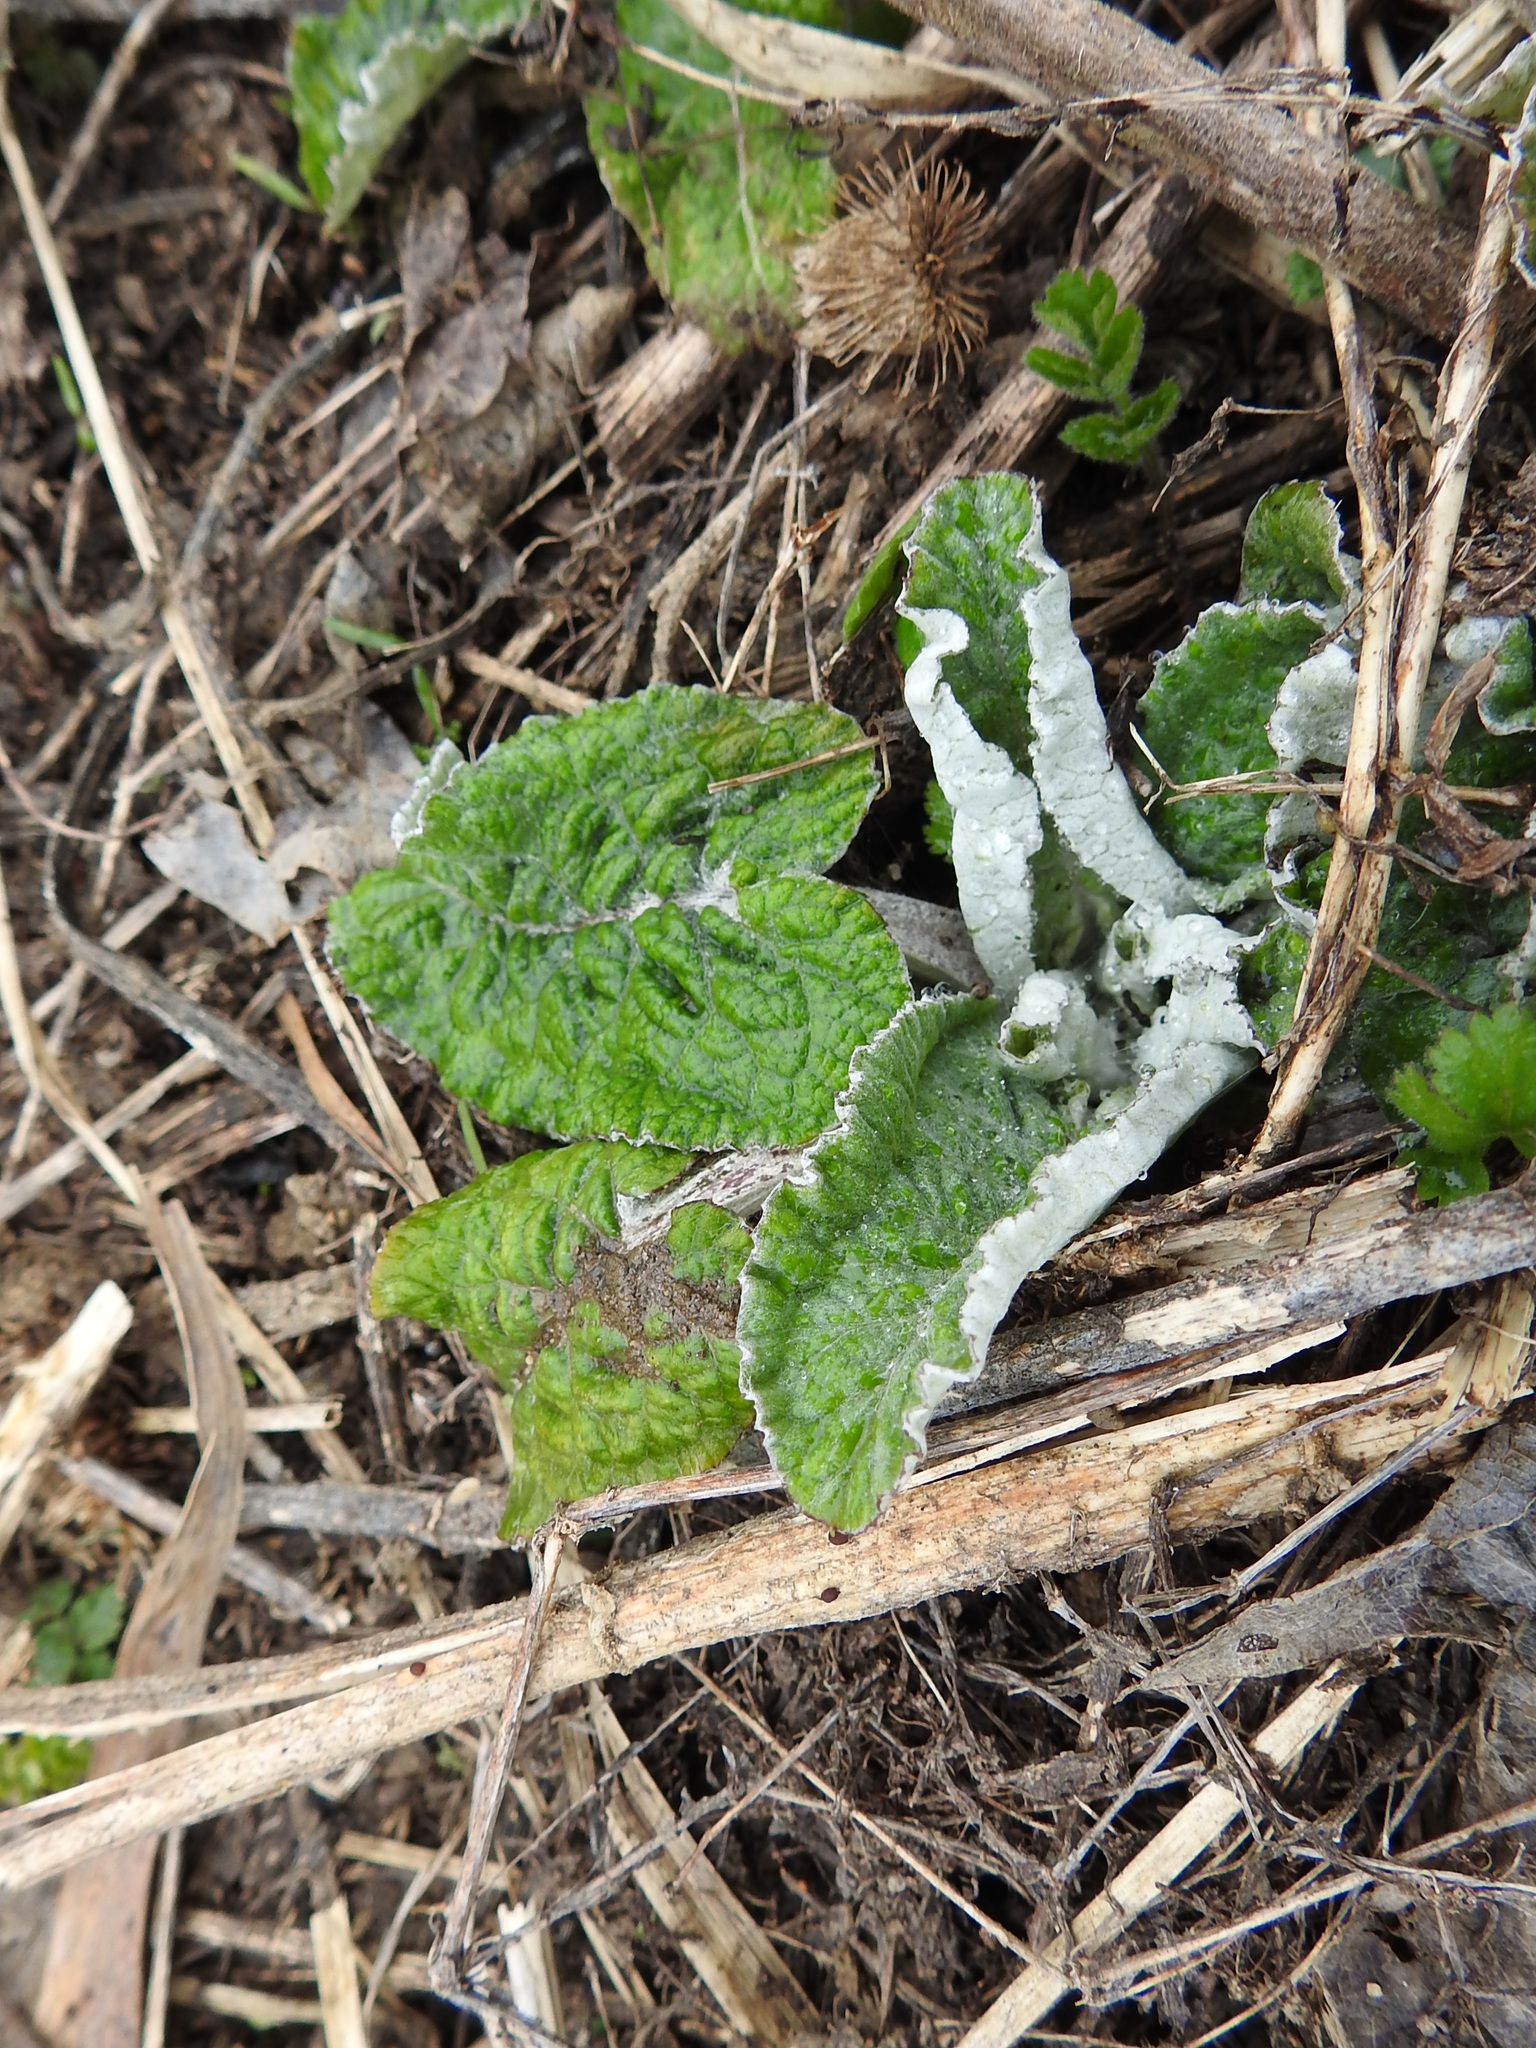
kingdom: Plantae
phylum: Tracheophyta
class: Magnoliopsida
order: Asterales
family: Asteraceae
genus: Arctium
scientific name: Arctium tomentosum
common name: Woolly burdock
